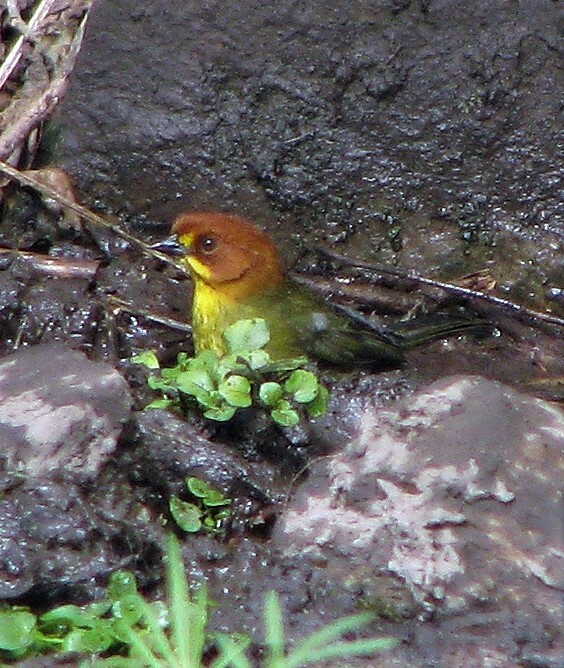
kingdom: Animalia
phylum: Chordata
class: Aves
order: Passeriformes
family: Passerellidae
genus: Atlapetes
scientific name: Atlapetes fulviceps
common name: Fulvous-headed brushfinch
